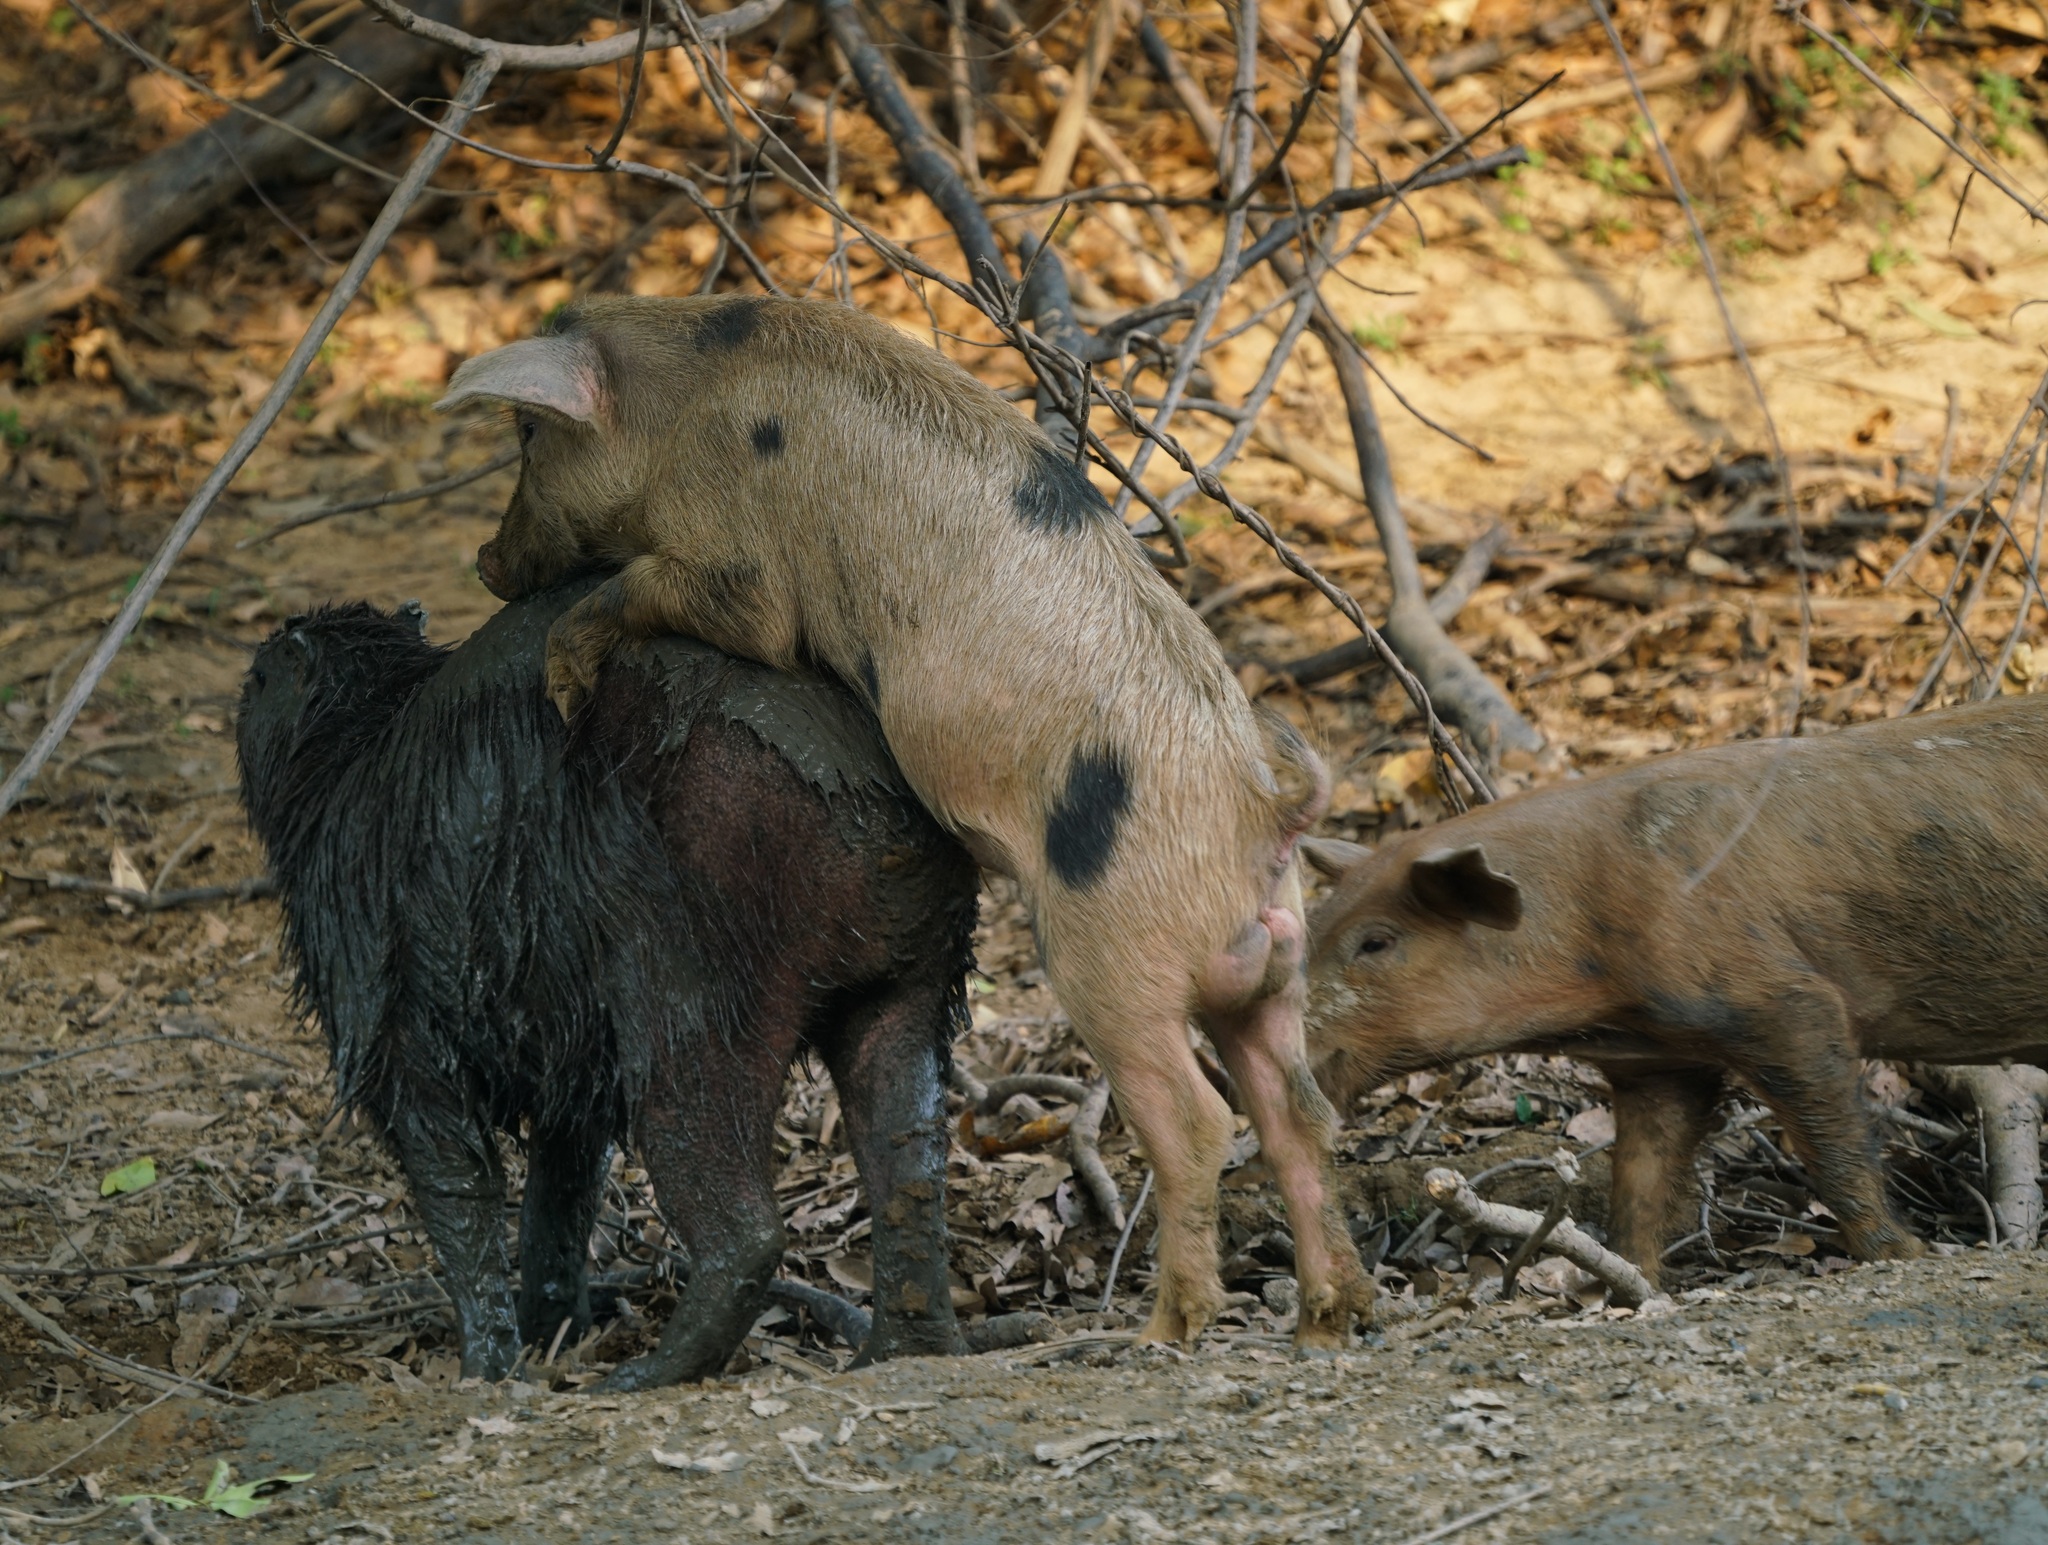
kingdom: Animalia
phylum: Chordata
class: Mammalia
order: Artiodactyla
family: Suidae
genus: Sus
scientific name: Sus scrofa
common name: Wild boar
